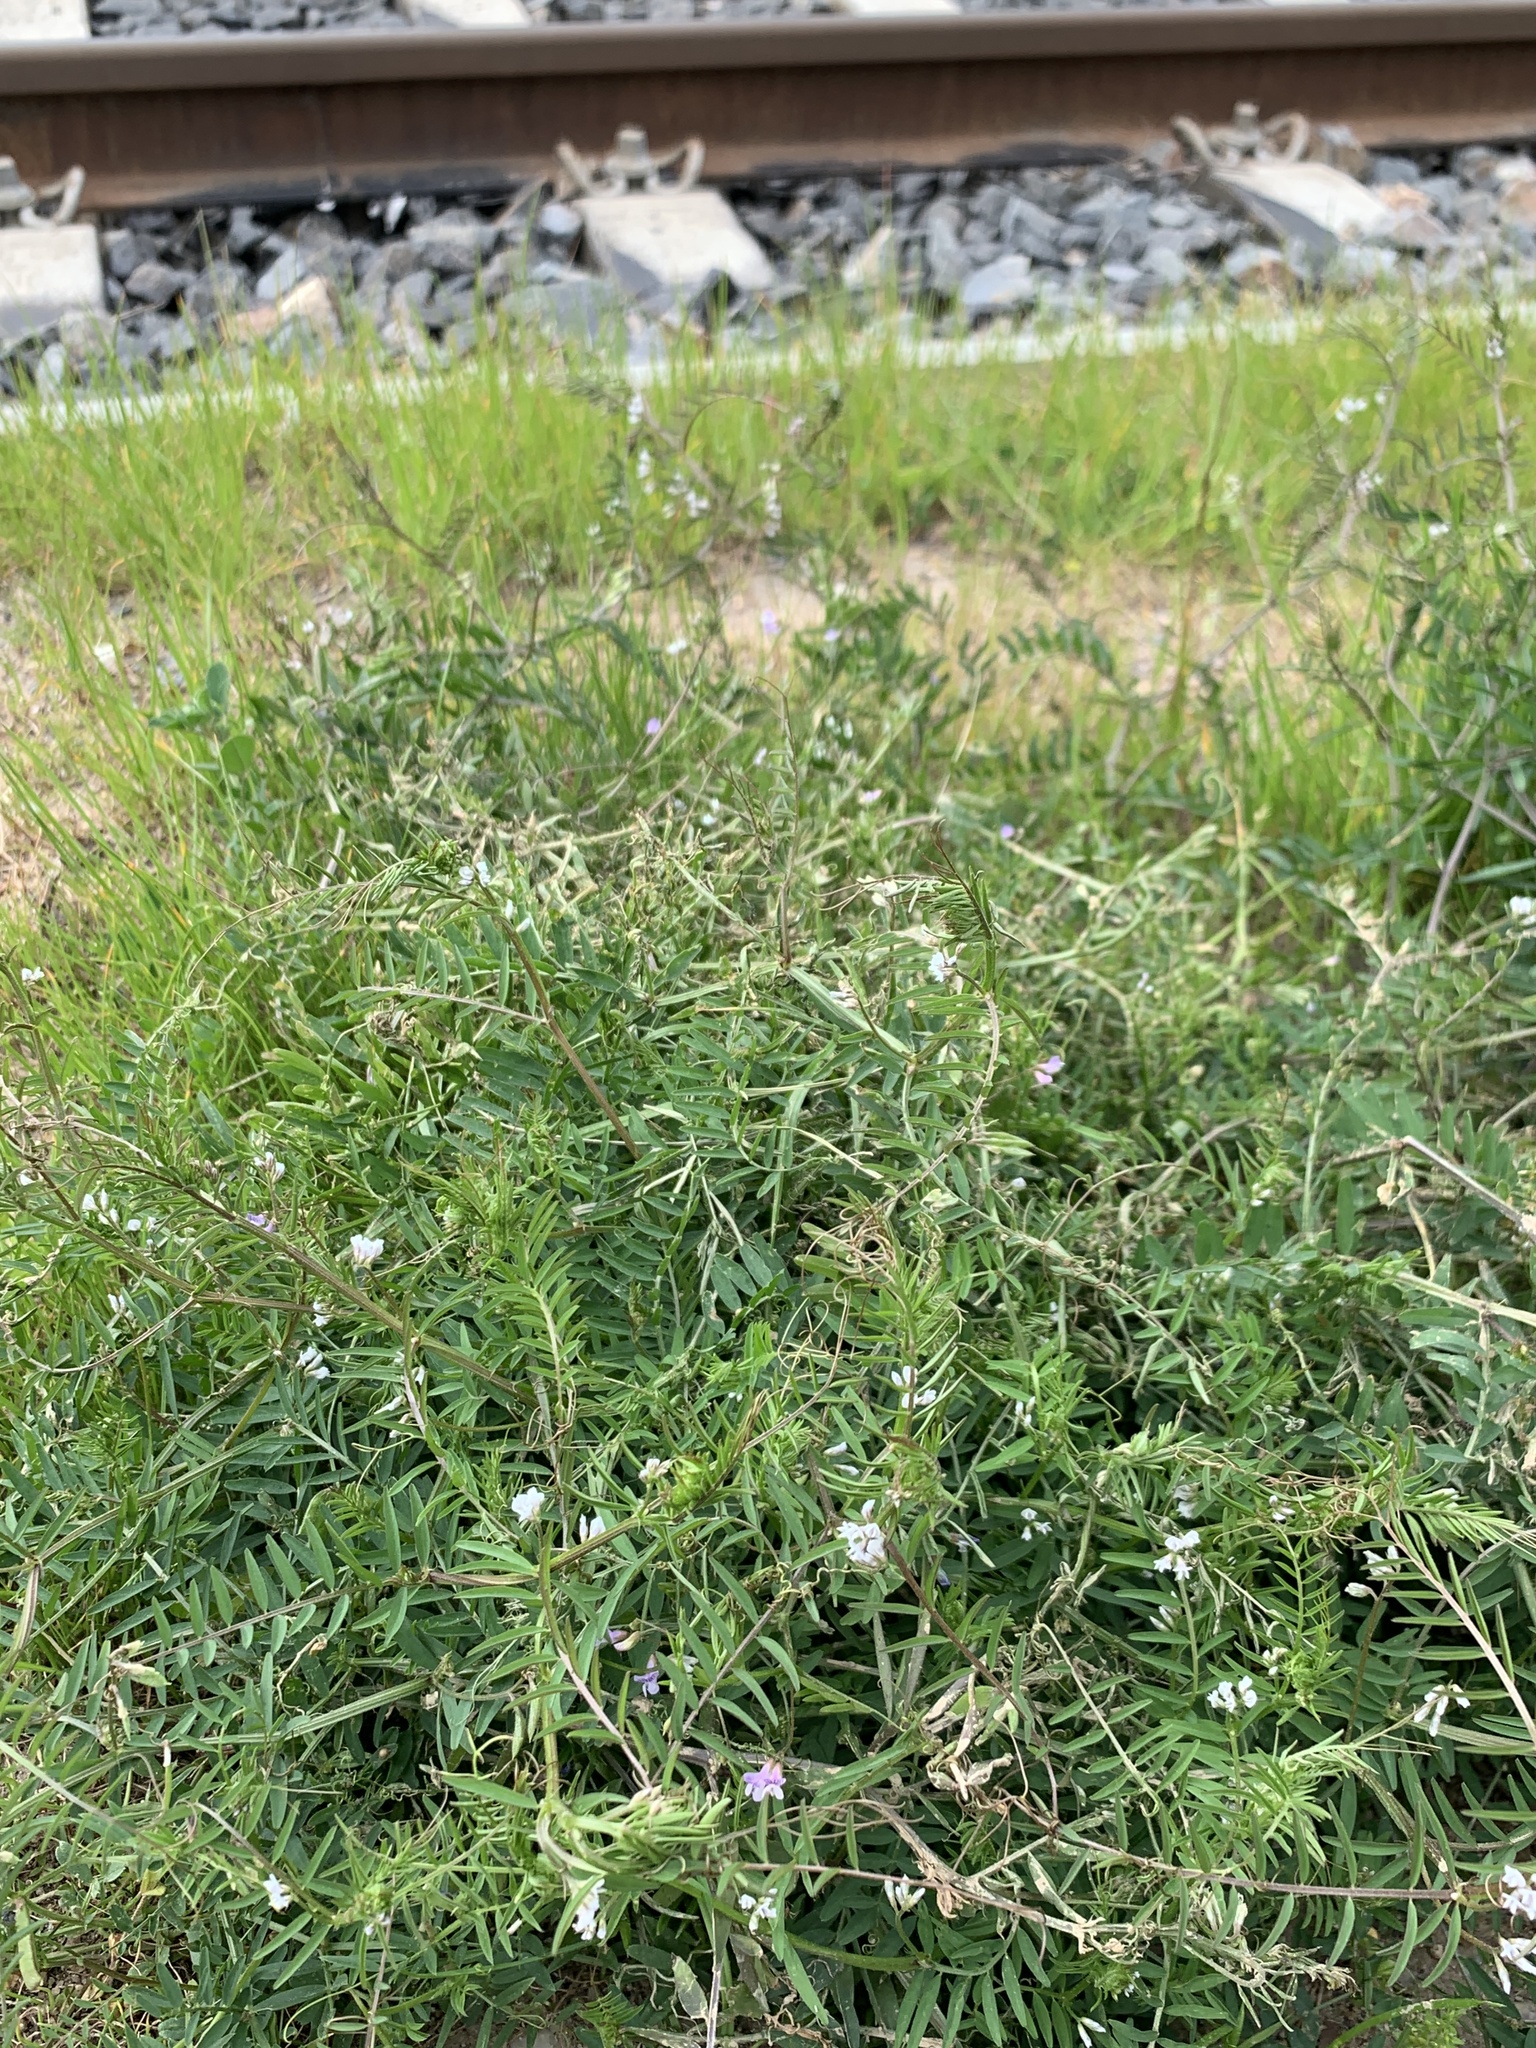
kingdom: Plantae
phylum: Tracheophyta
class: Magnoliopsida
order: Fabales
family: Fabaceae
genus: Vicia
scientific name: Vicia hirsuta
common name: Tiny vetch
